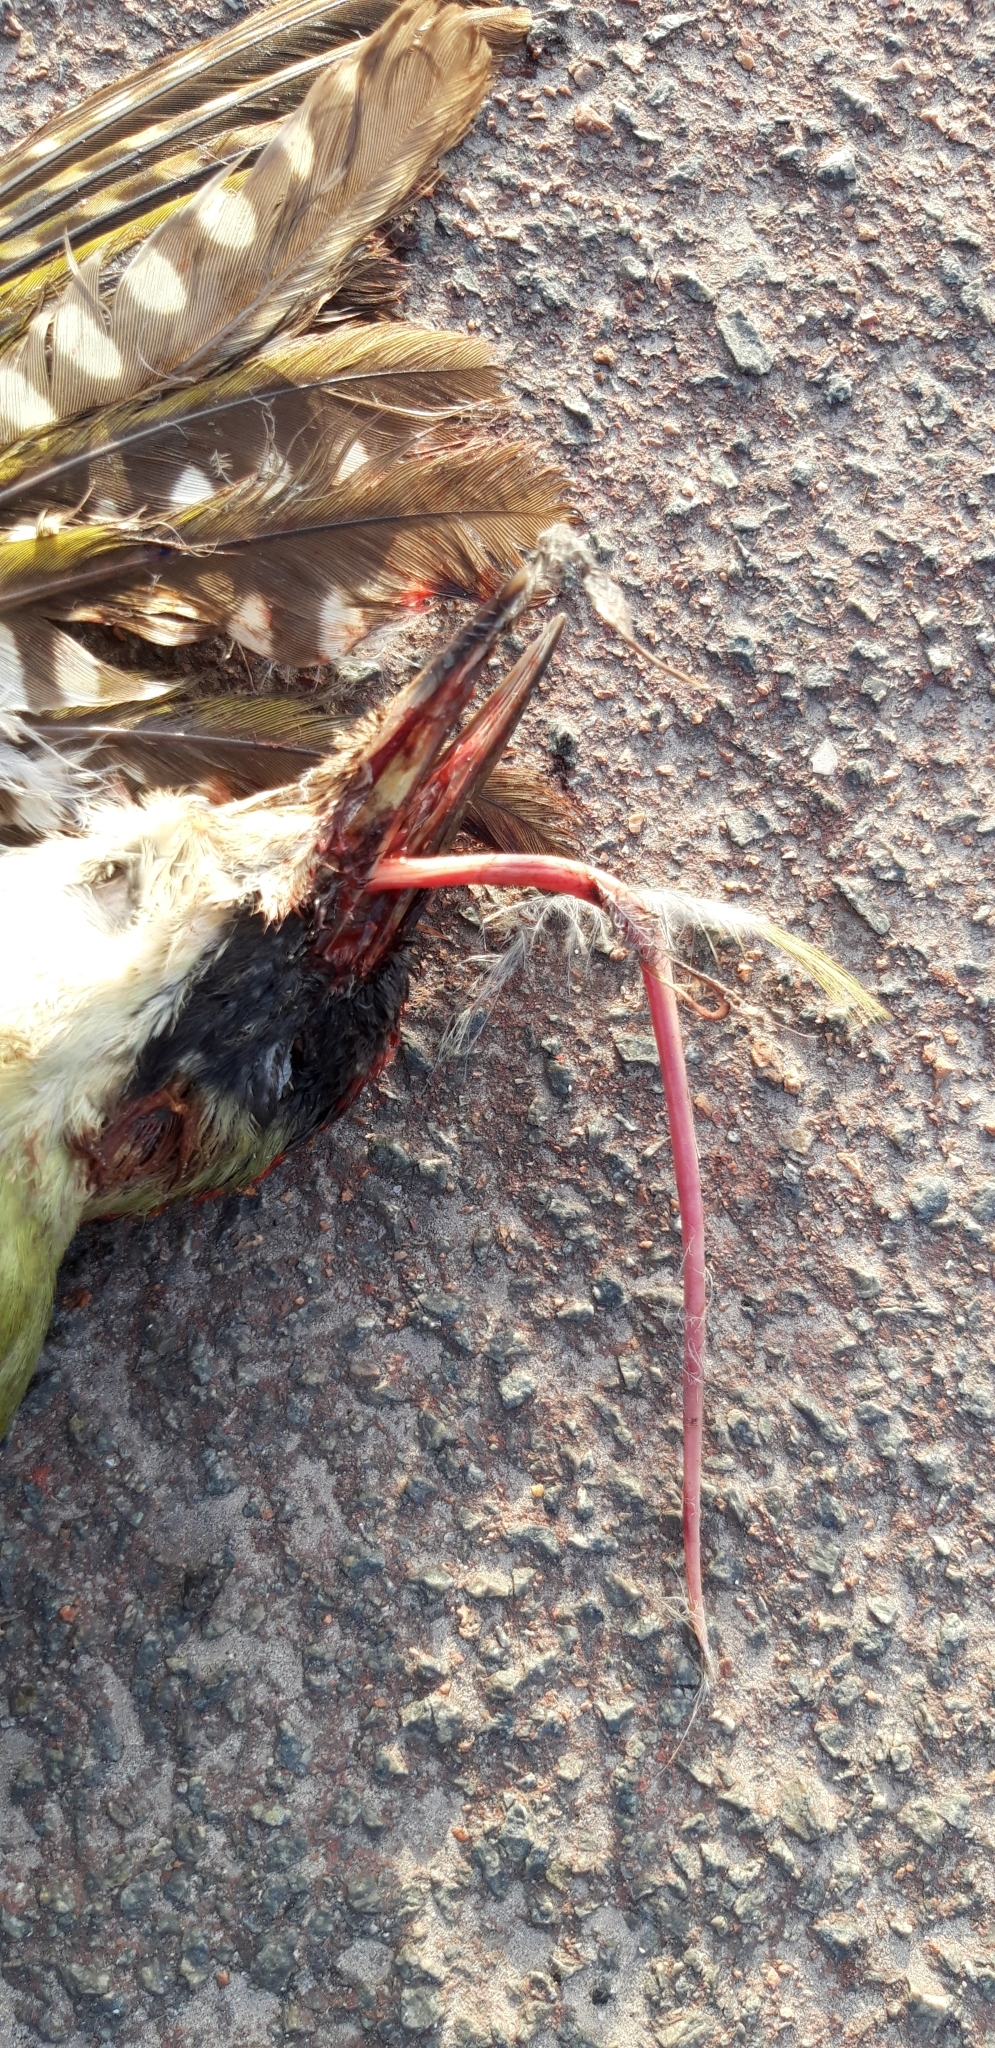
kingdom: Animalia
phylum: Chordata
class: Aves
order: Piciformes
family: Picidae
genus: Picus
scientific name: Picus viridis
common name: European green woodpecker
